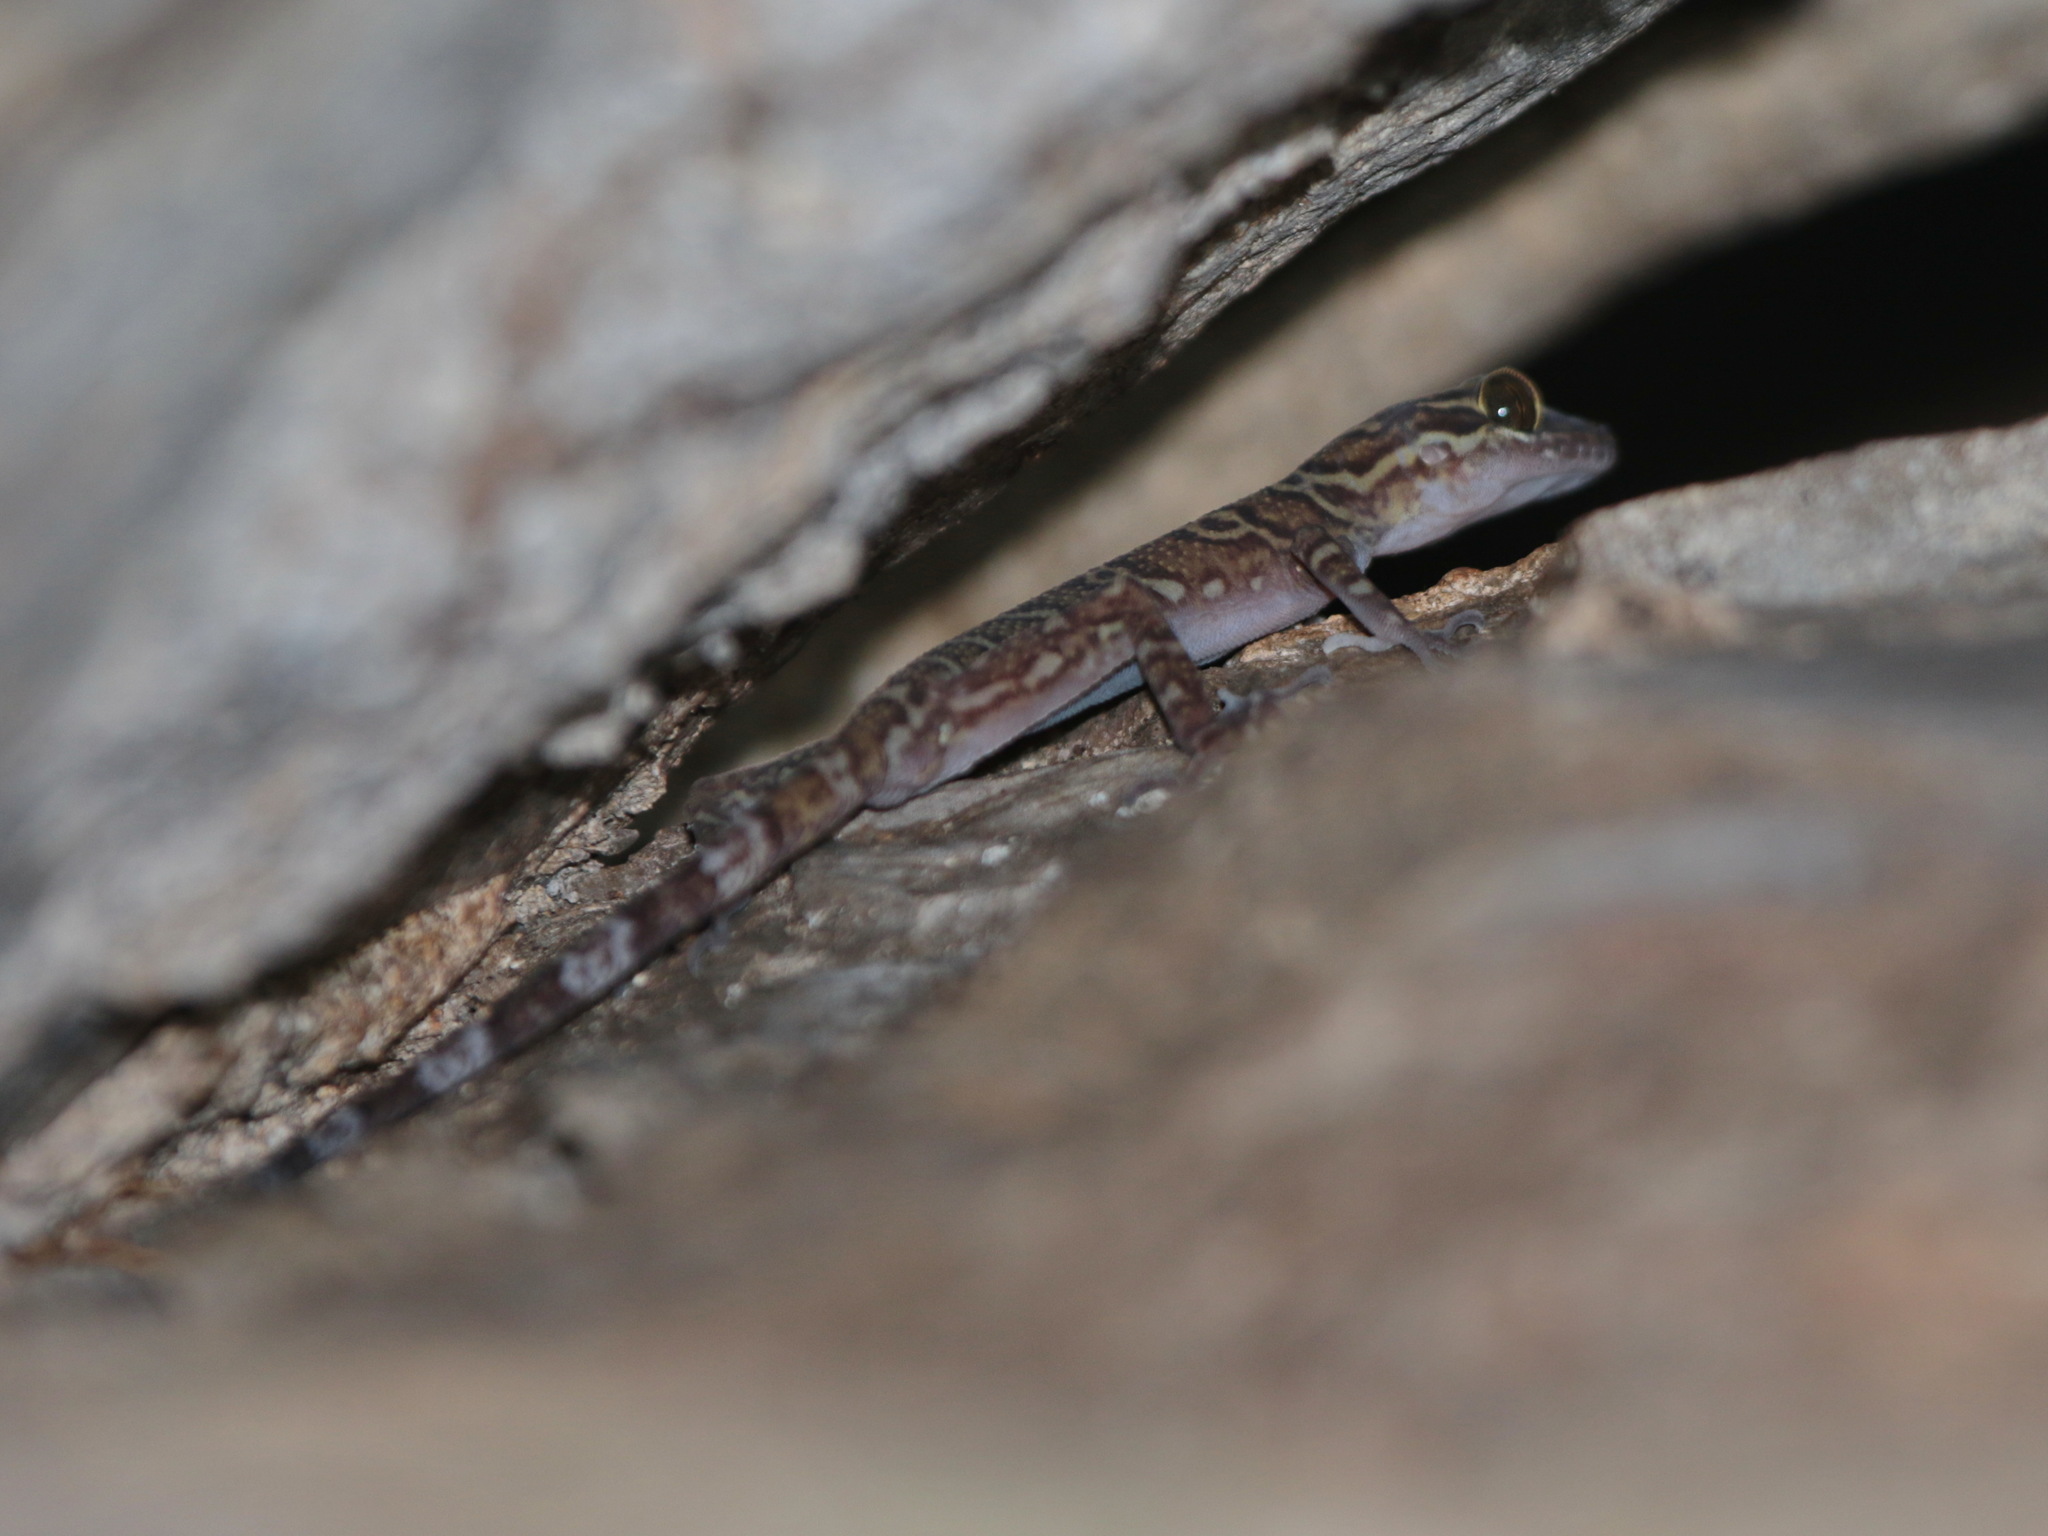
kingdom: Animalia
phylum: Chordata
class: Squamata
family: Gekkonidae
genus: Cyrtodactylus
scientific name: Cyrtodactylus thirakhupti
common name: Thirakhupt’s bent toed gecko
